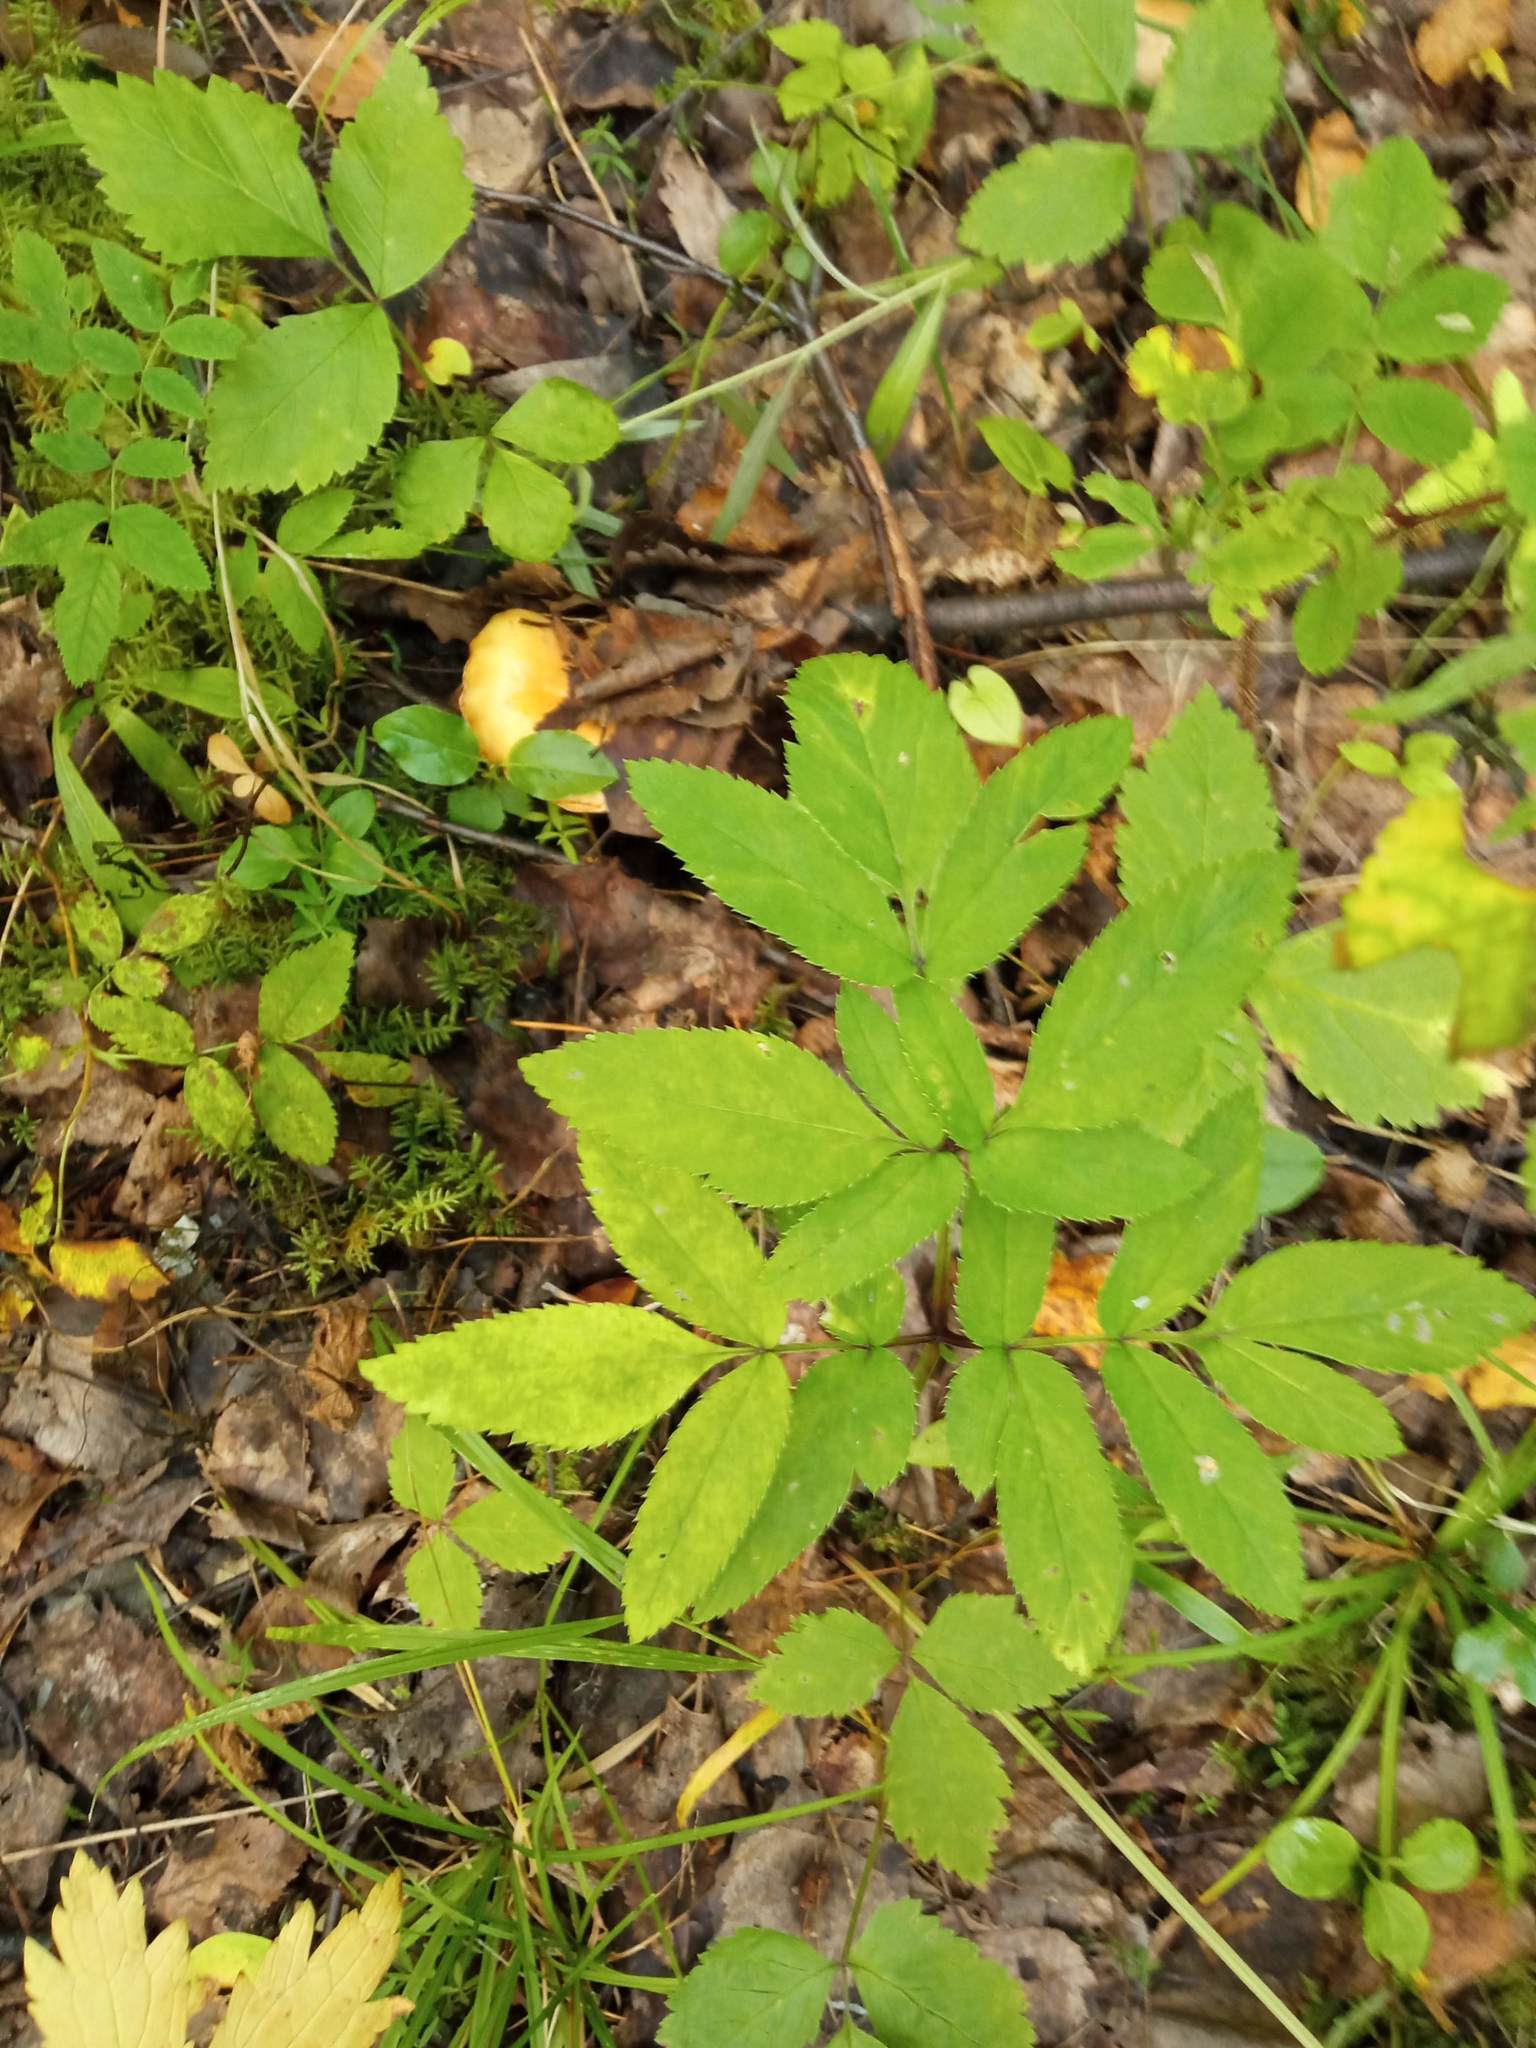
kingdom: Plantae
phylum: Tracheophyta
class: Magnoliopsida
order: Apiales
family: Apiaceae
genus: Angelica
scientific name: Angelica sylvestris
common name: Wild angelica
